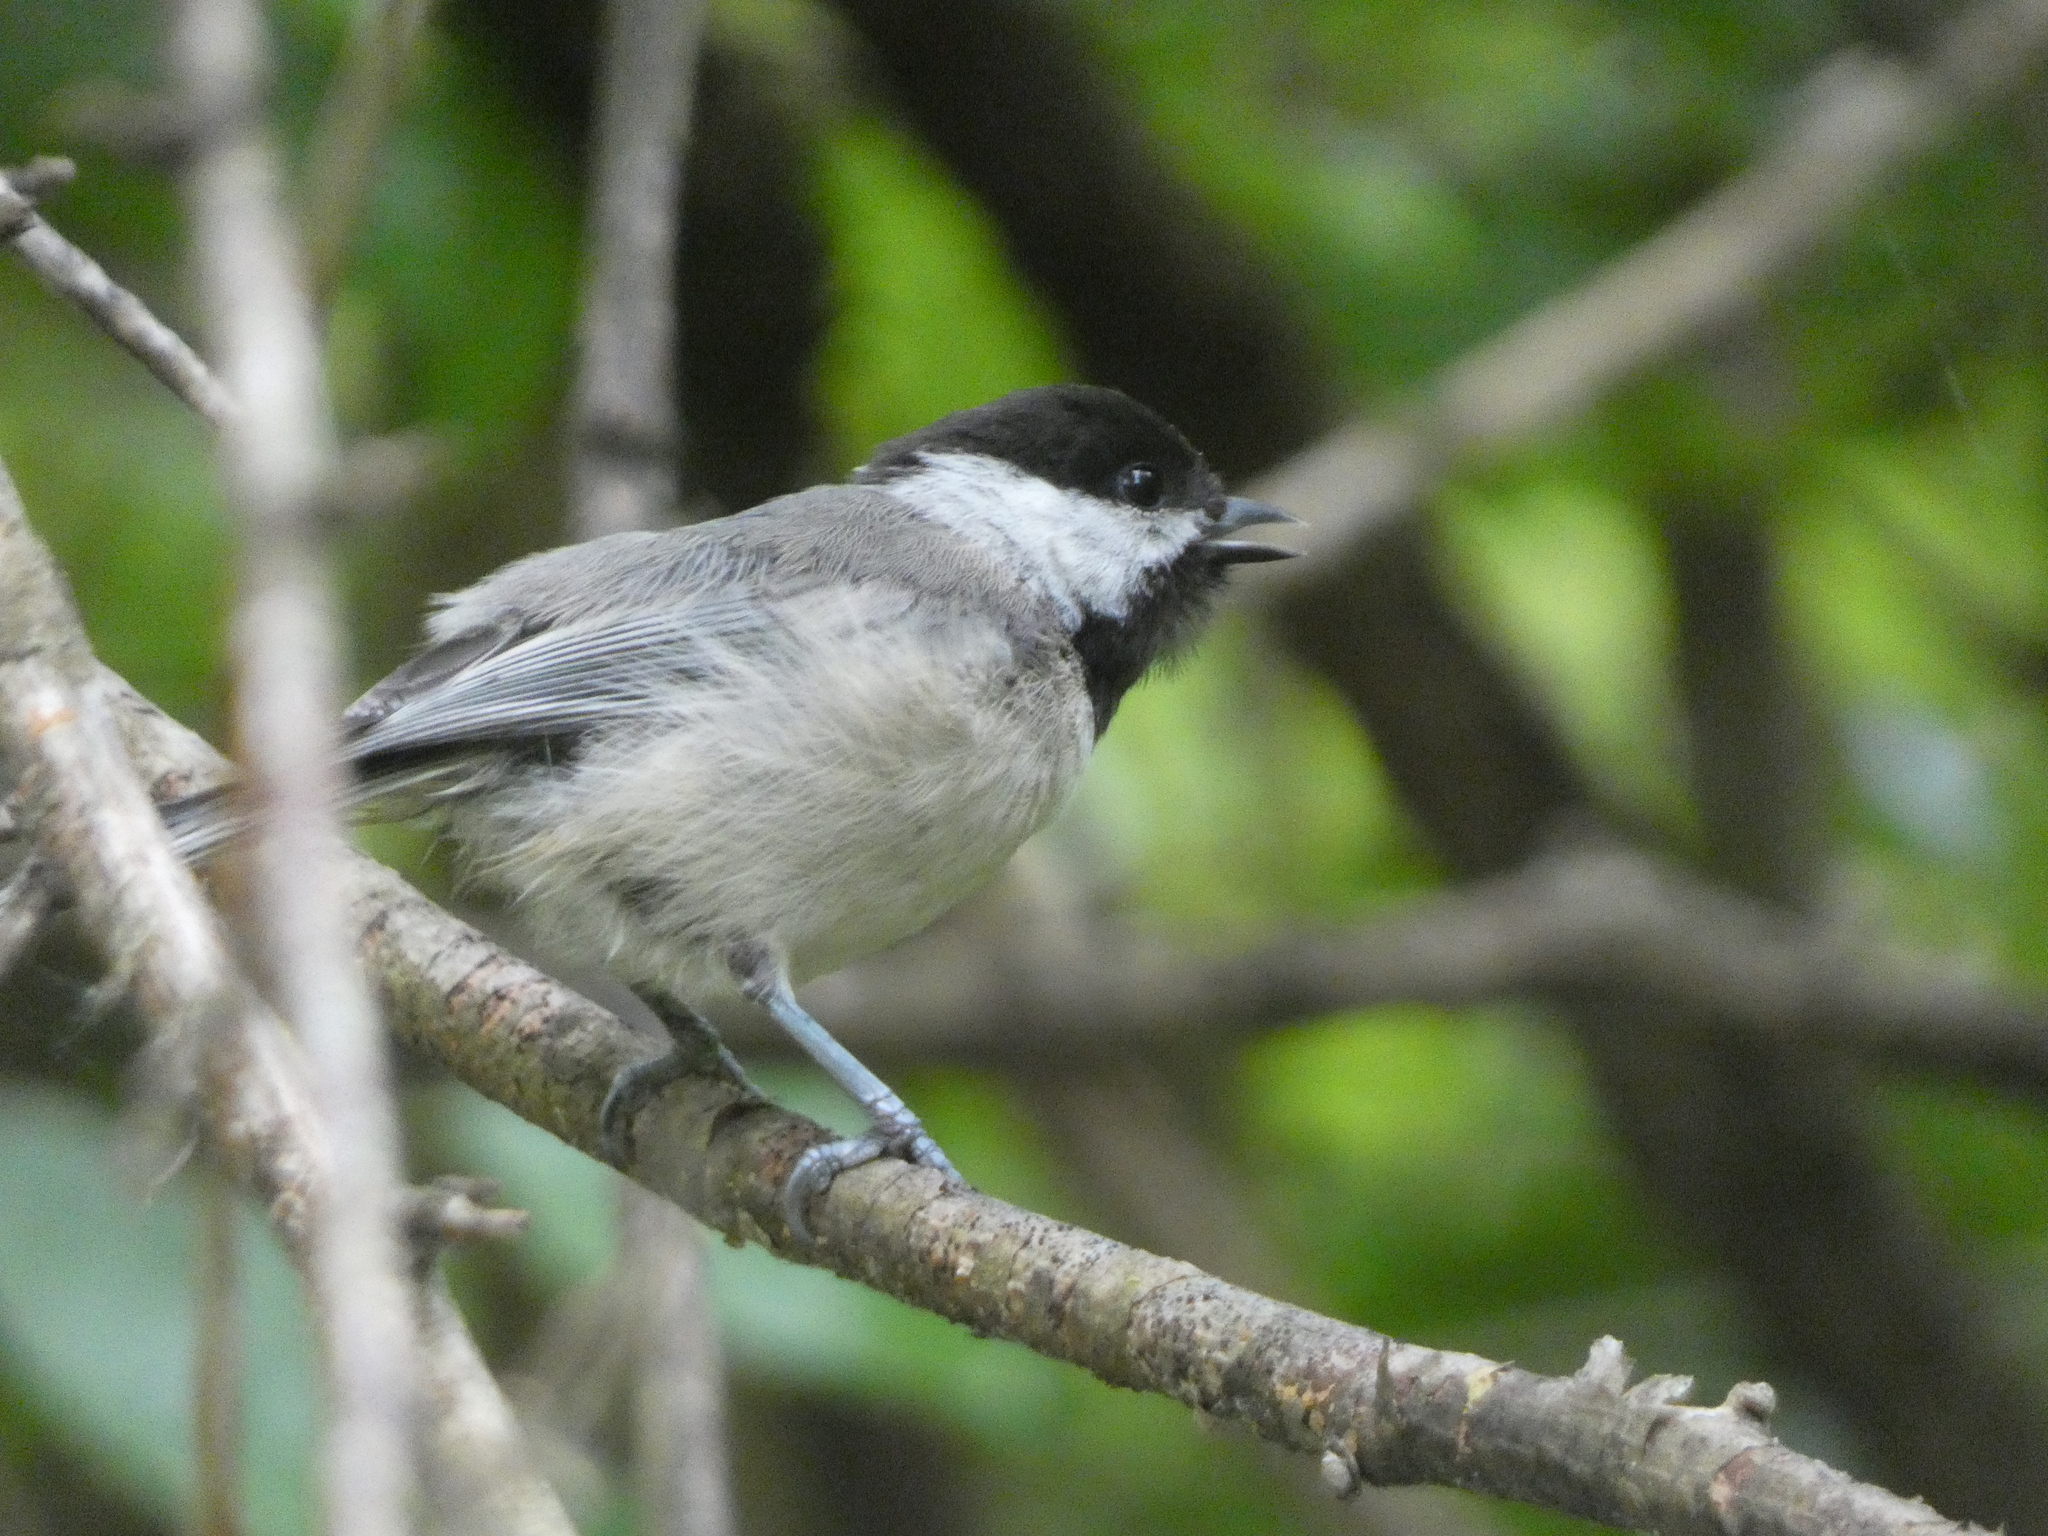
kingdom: Animalia
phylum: Chordata
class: Aves
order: Passeriformes
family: Paridae
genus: Poecile
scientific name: Poecile atricapillus
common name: Black-capped chickadee
